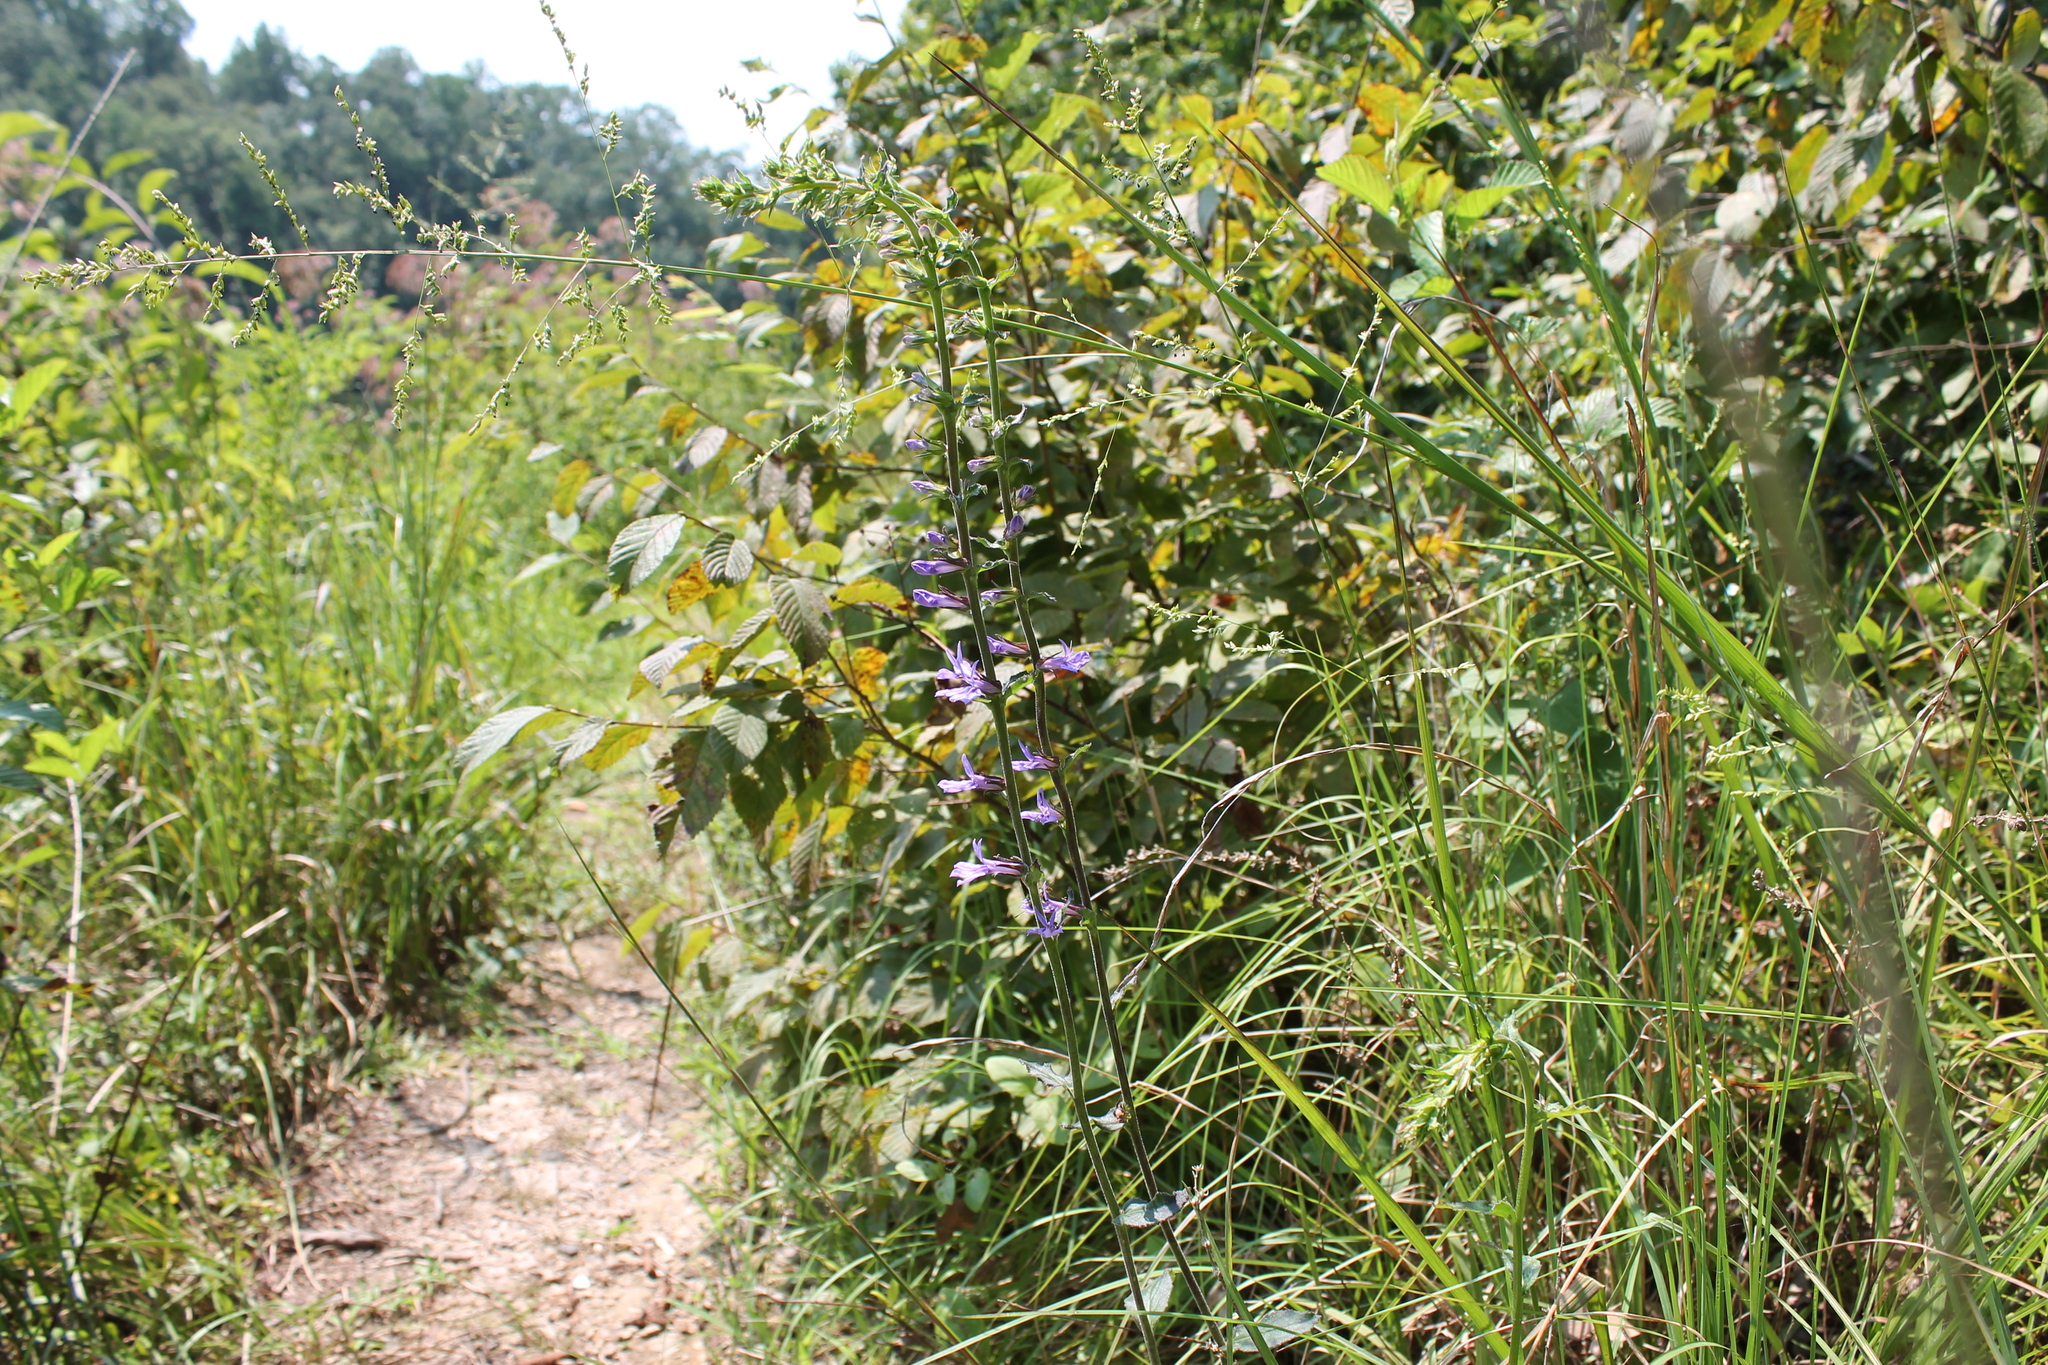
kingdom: Plantae
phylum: Tracheophyta
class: Magnoliopsida
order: Asterales
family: Campanulaceae
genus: Lobelia
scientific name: Lobelia puberula
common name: Purple dewdrop
